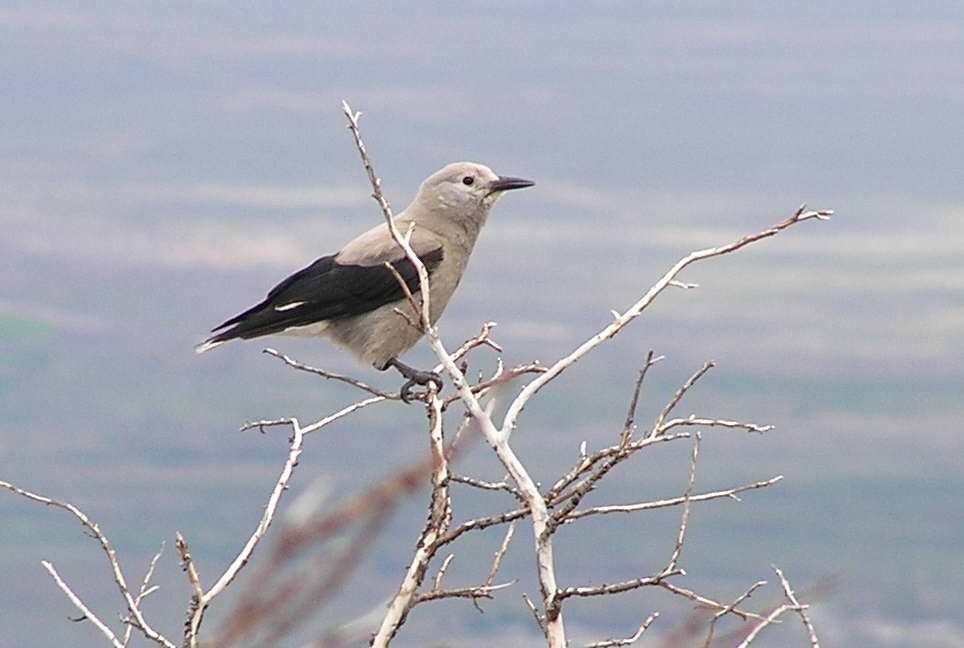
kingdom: Animalia
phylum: Chordata
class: Aves
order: Passeriformes
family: Corvidae
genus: Nucifraga
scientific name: Nucifraga columbiana
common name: Clark's nutcracker
